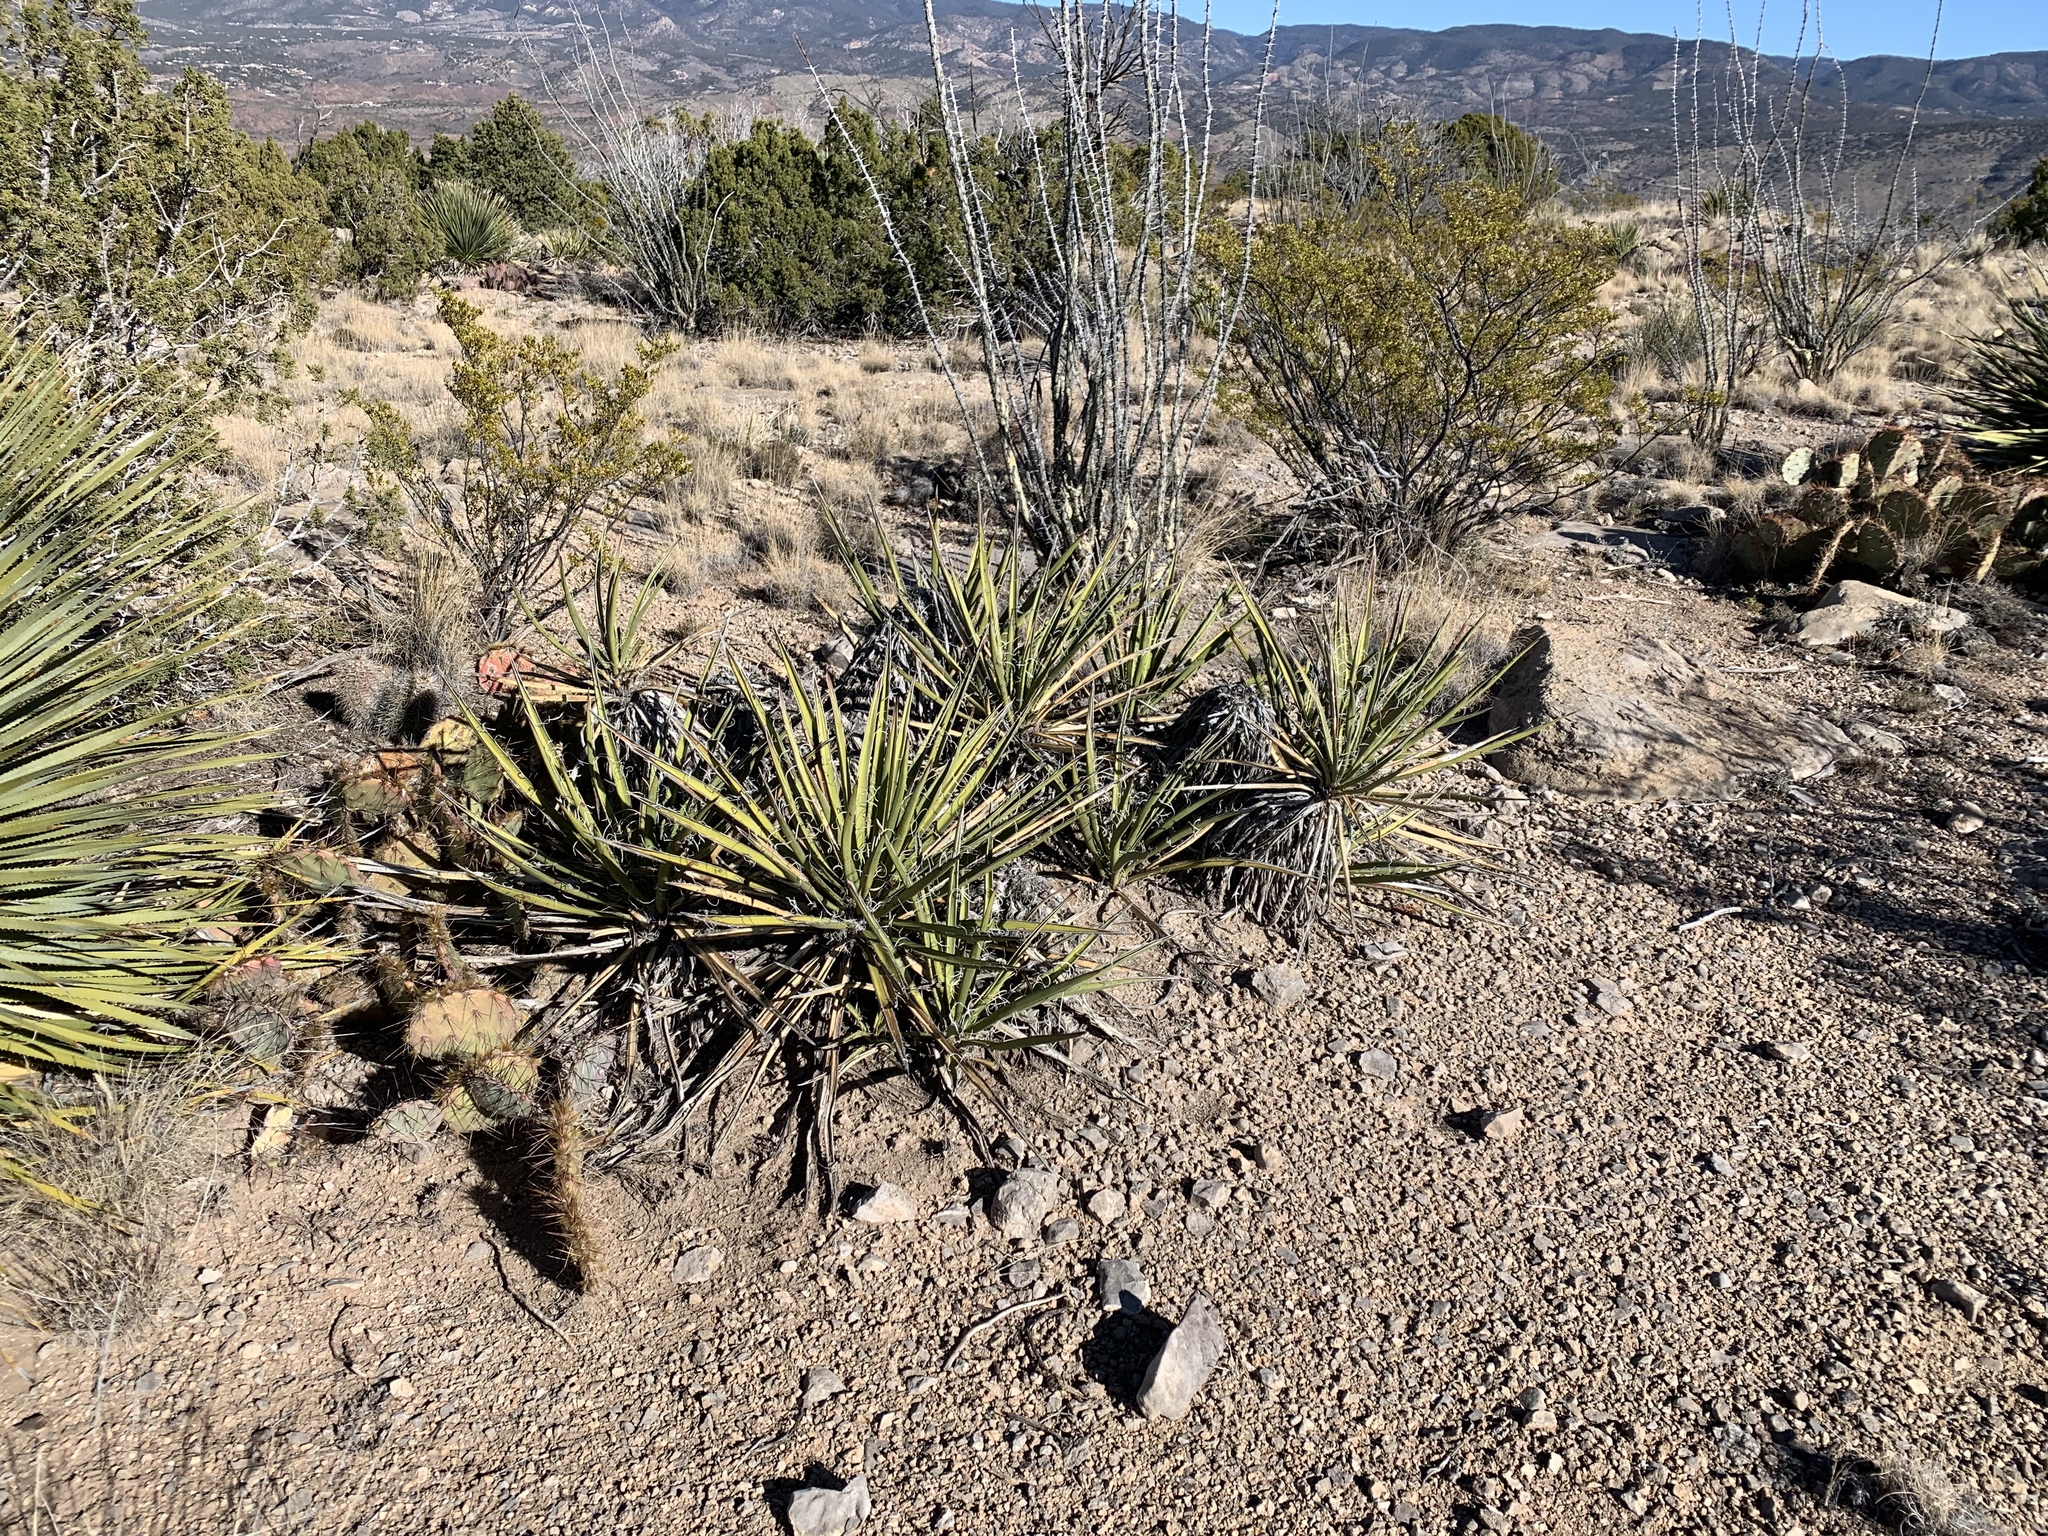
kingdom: Plantae
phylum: Tracheophyta
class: Liliopsida
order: Asparagales
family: Asparagaceae
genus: Yucca
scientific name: Yucca baccata
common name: Banana yucca
